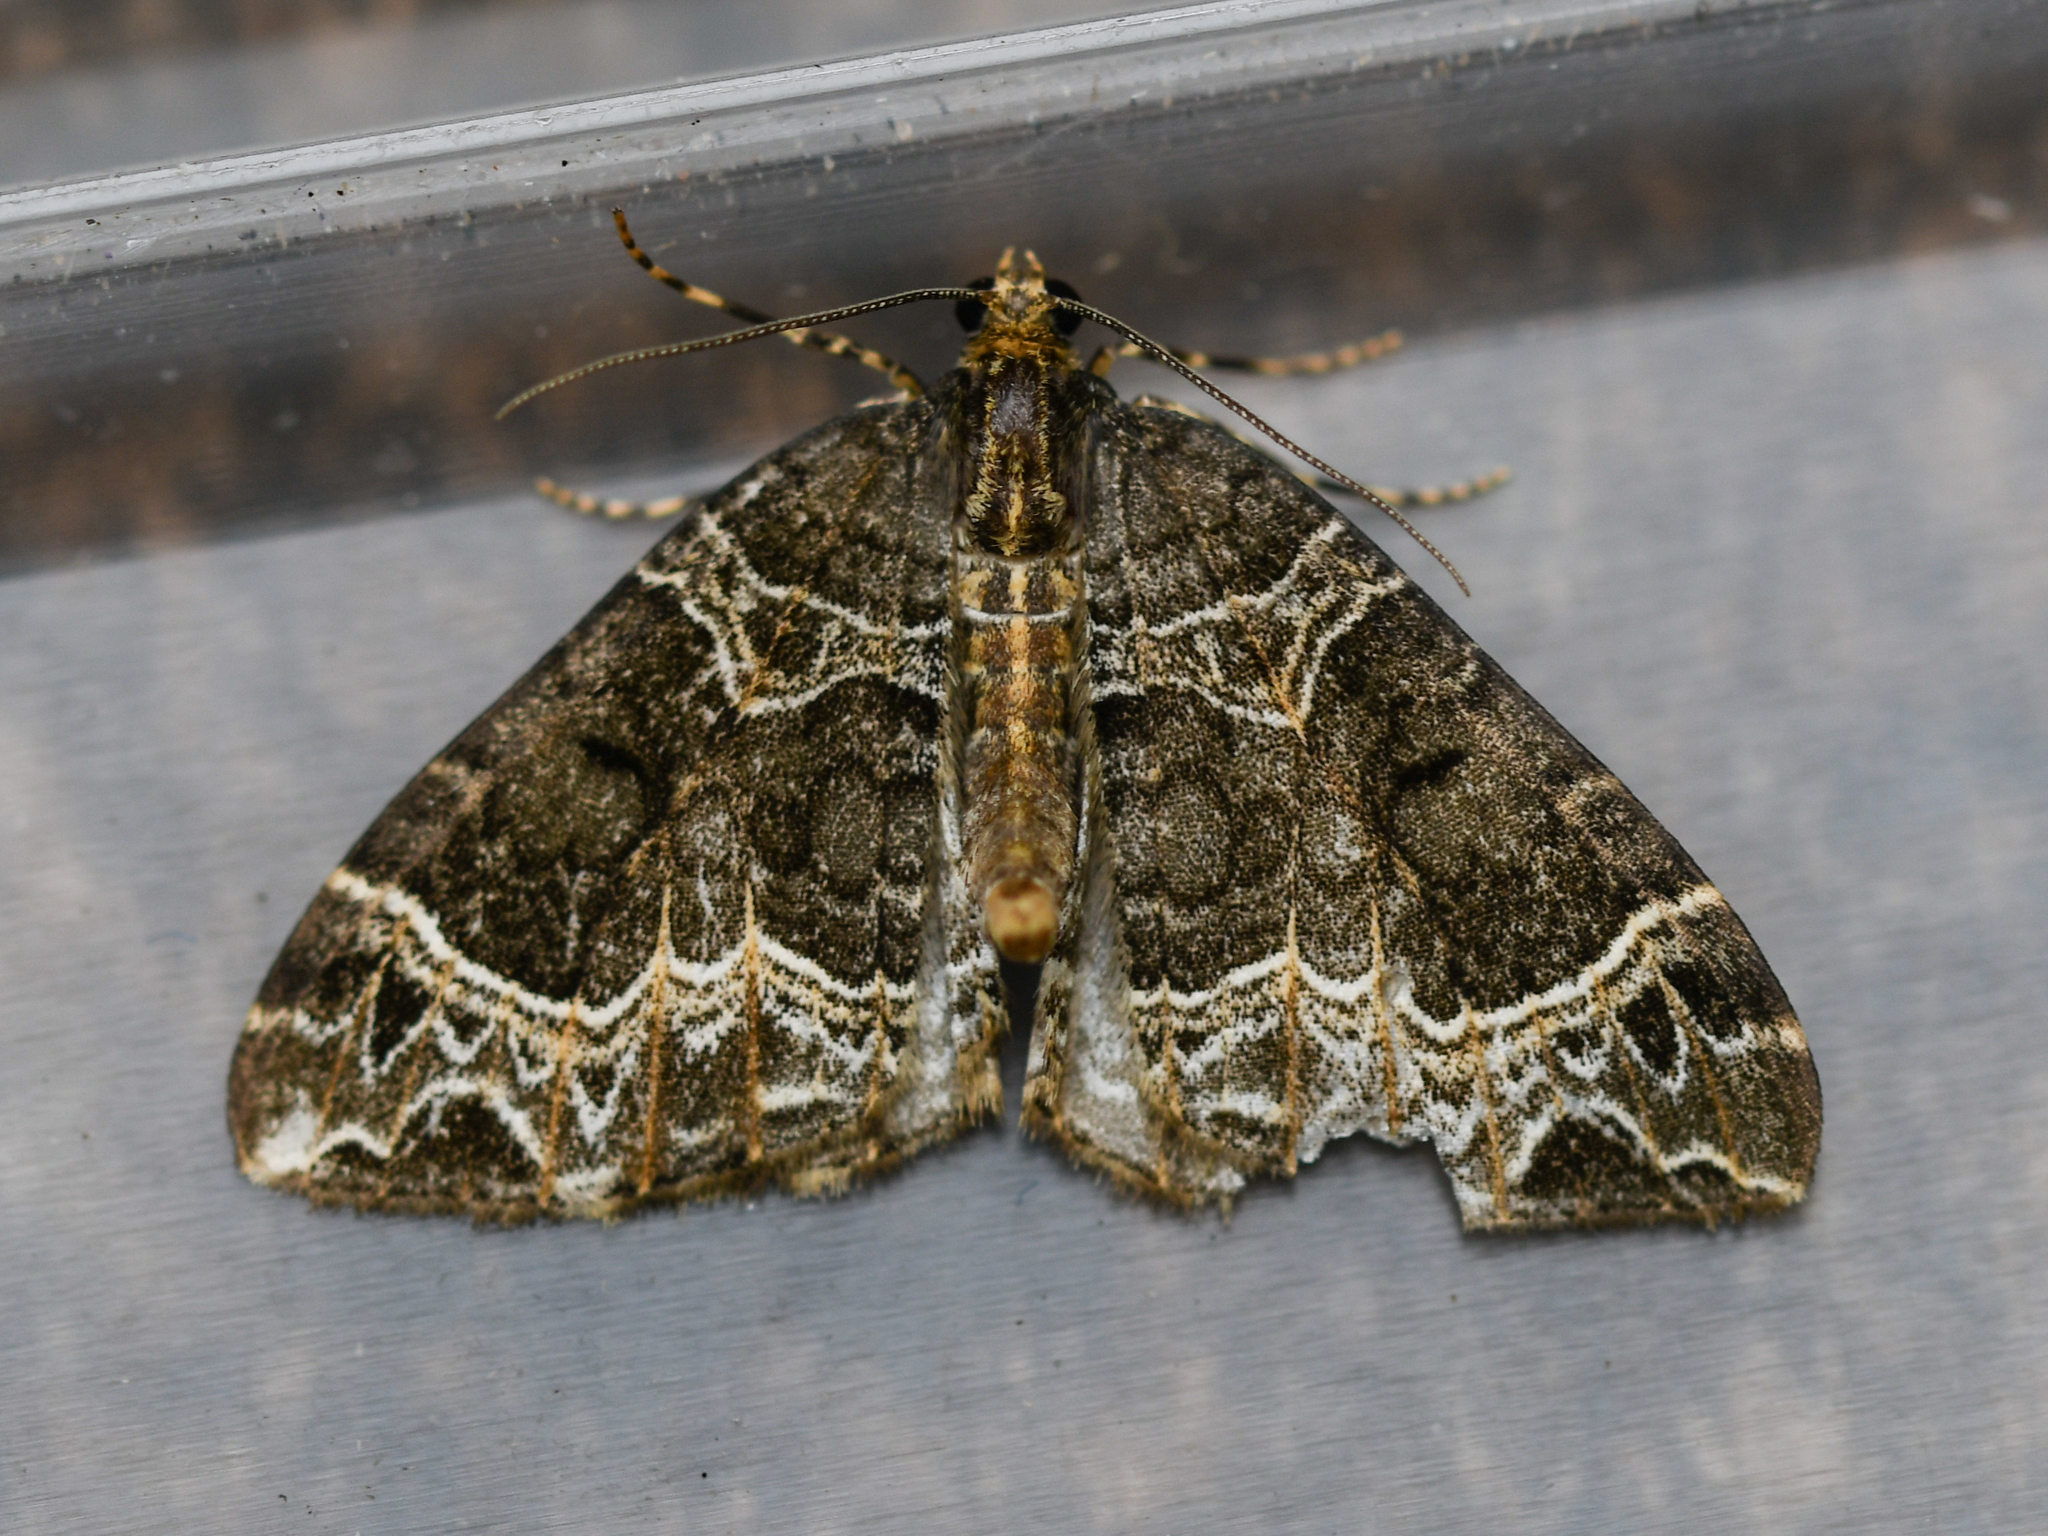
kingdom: Animalia
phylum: Arthropoda
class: Insecta
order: Lepidoptera
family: Geometridae
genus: Ecliptopera
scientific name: Ecliptopera silaceata
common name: Small phoenix
